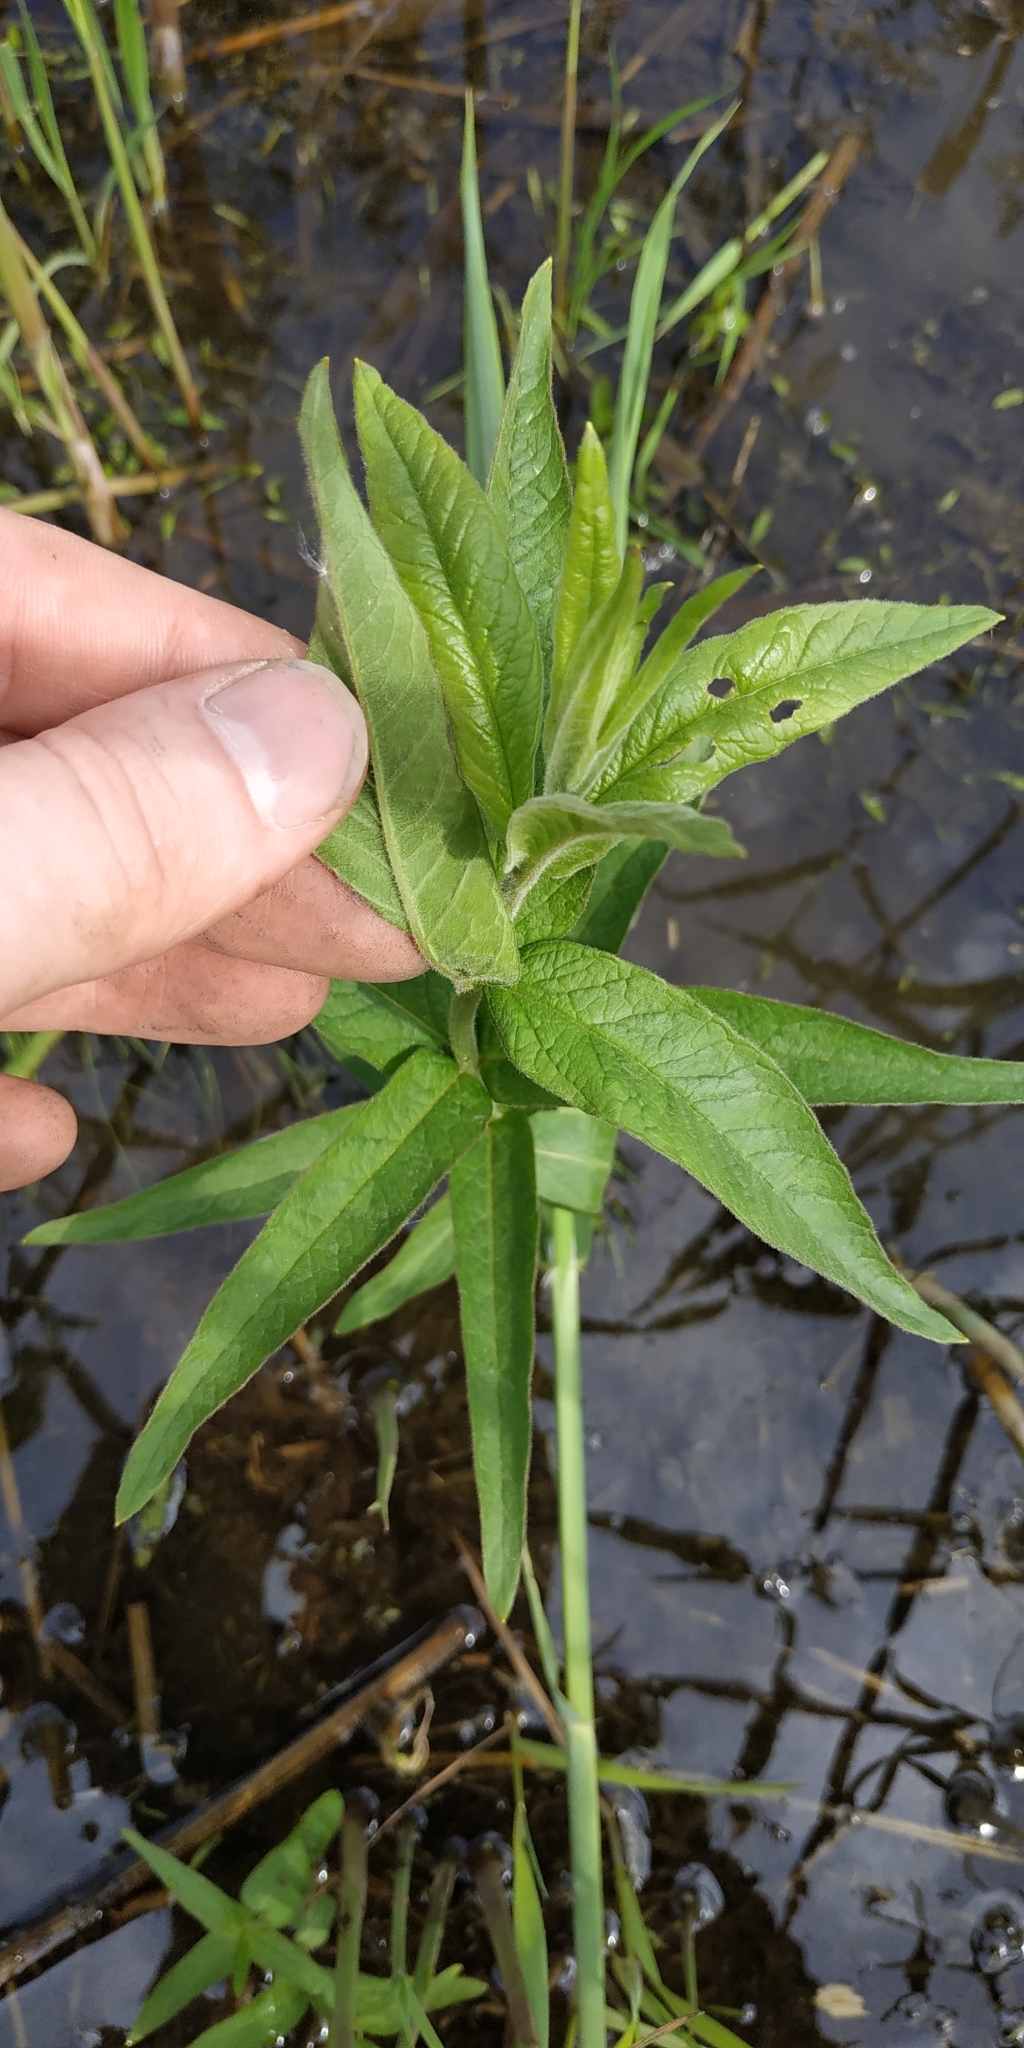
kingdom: Plantae
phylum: Tracheophyta
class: Magnoliopsida
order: Ericales
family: Primulaceae
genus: Lysimachia
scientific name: Lysimachia vulgaris
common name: Yellow loosestrife
